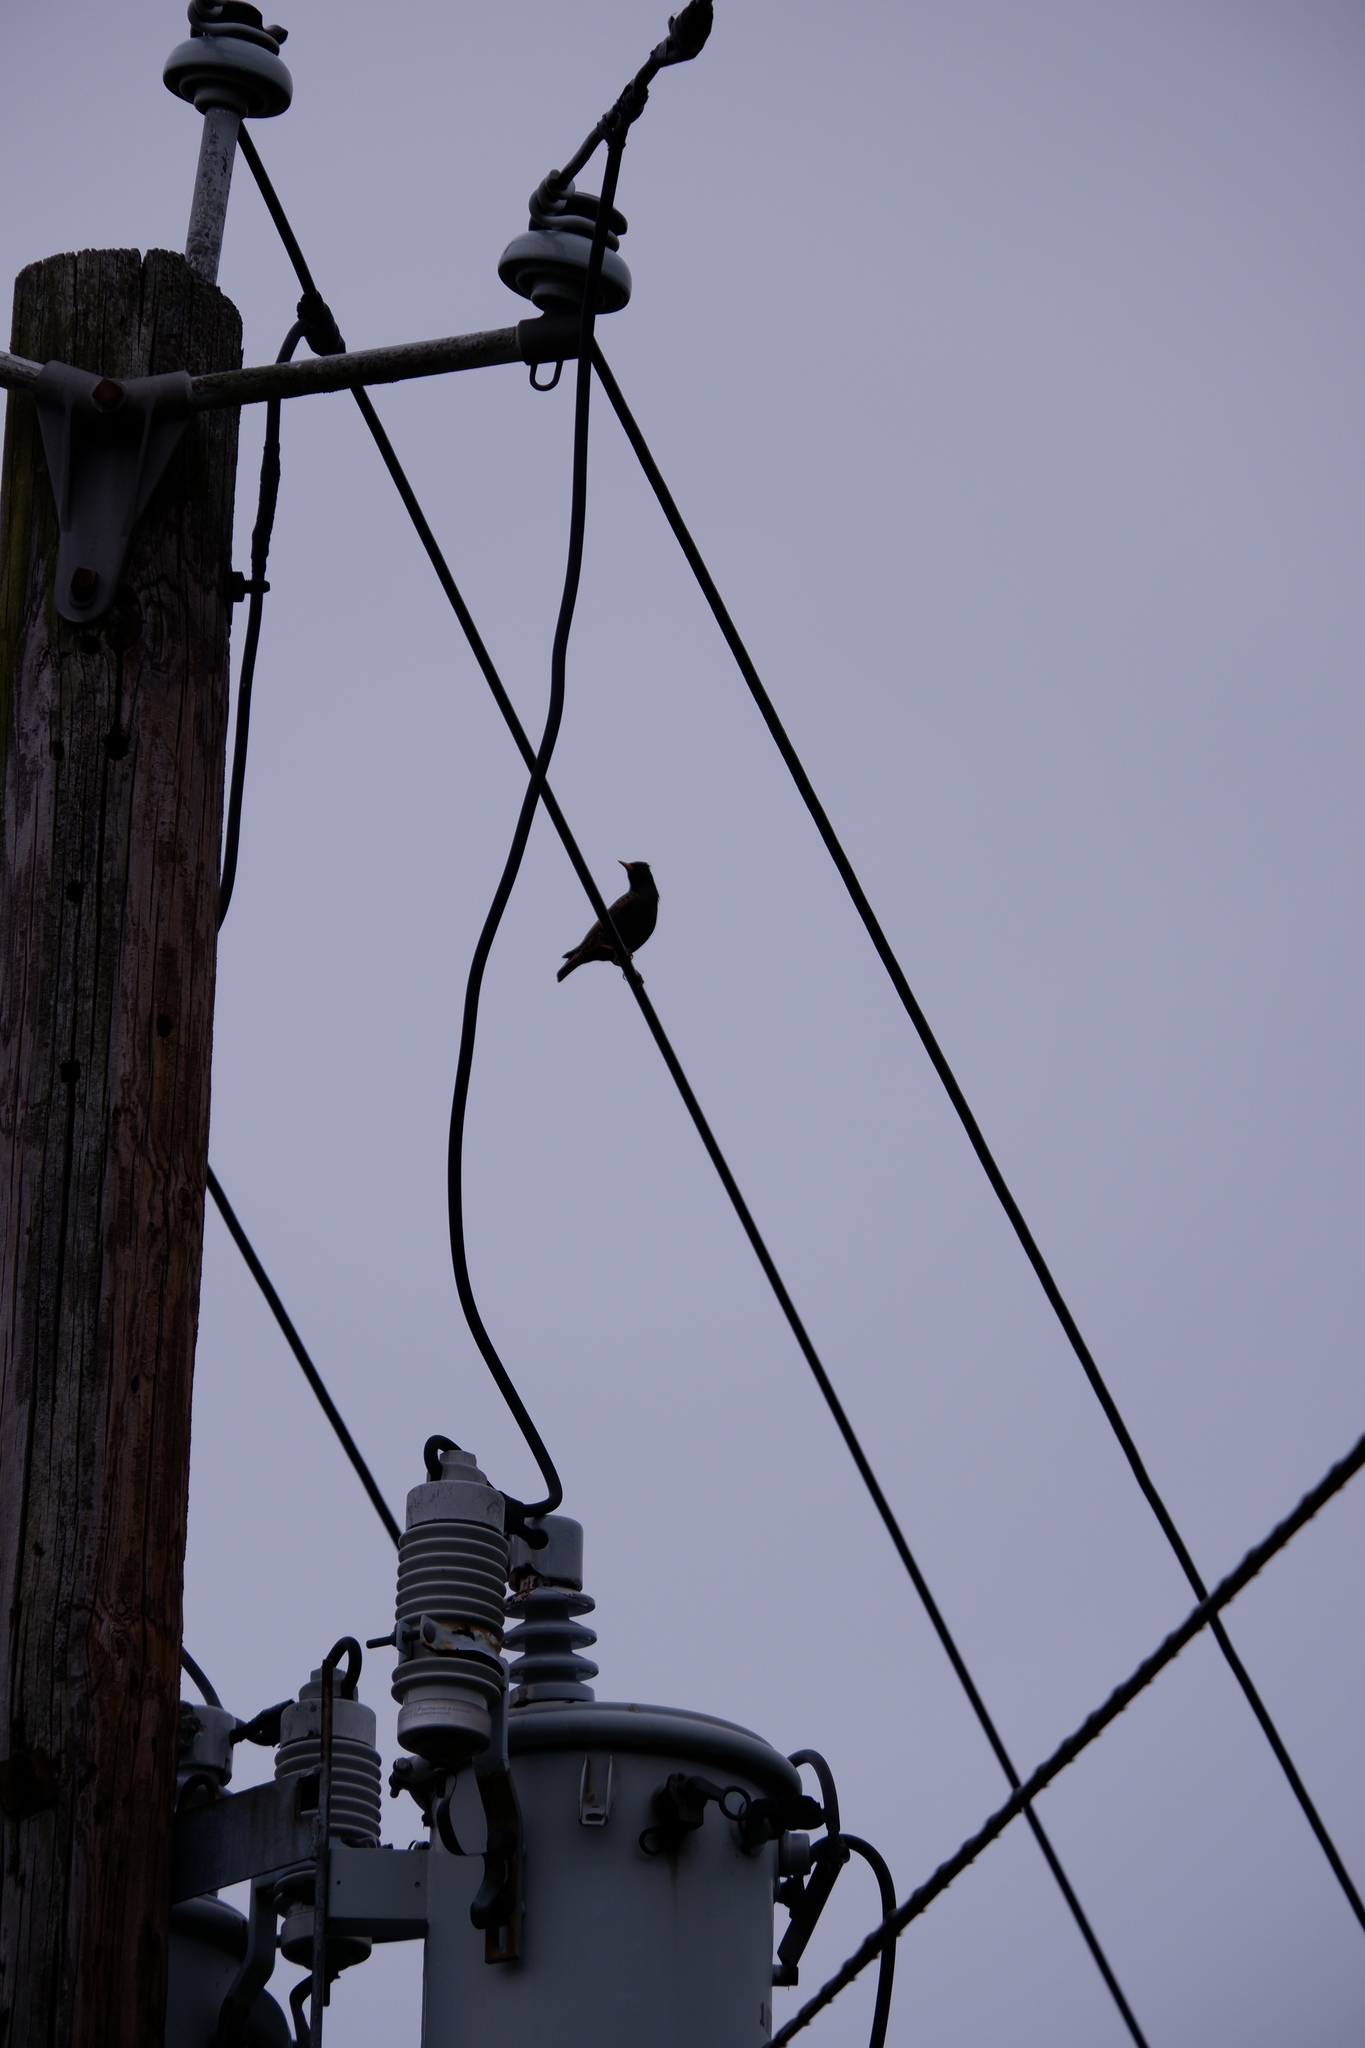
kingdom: Animalia
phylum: Chordata
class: Aves
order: Passeriformes
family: Sturnidae
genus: Sturnus
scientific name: Sturnus vulgaris
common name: Common starling
